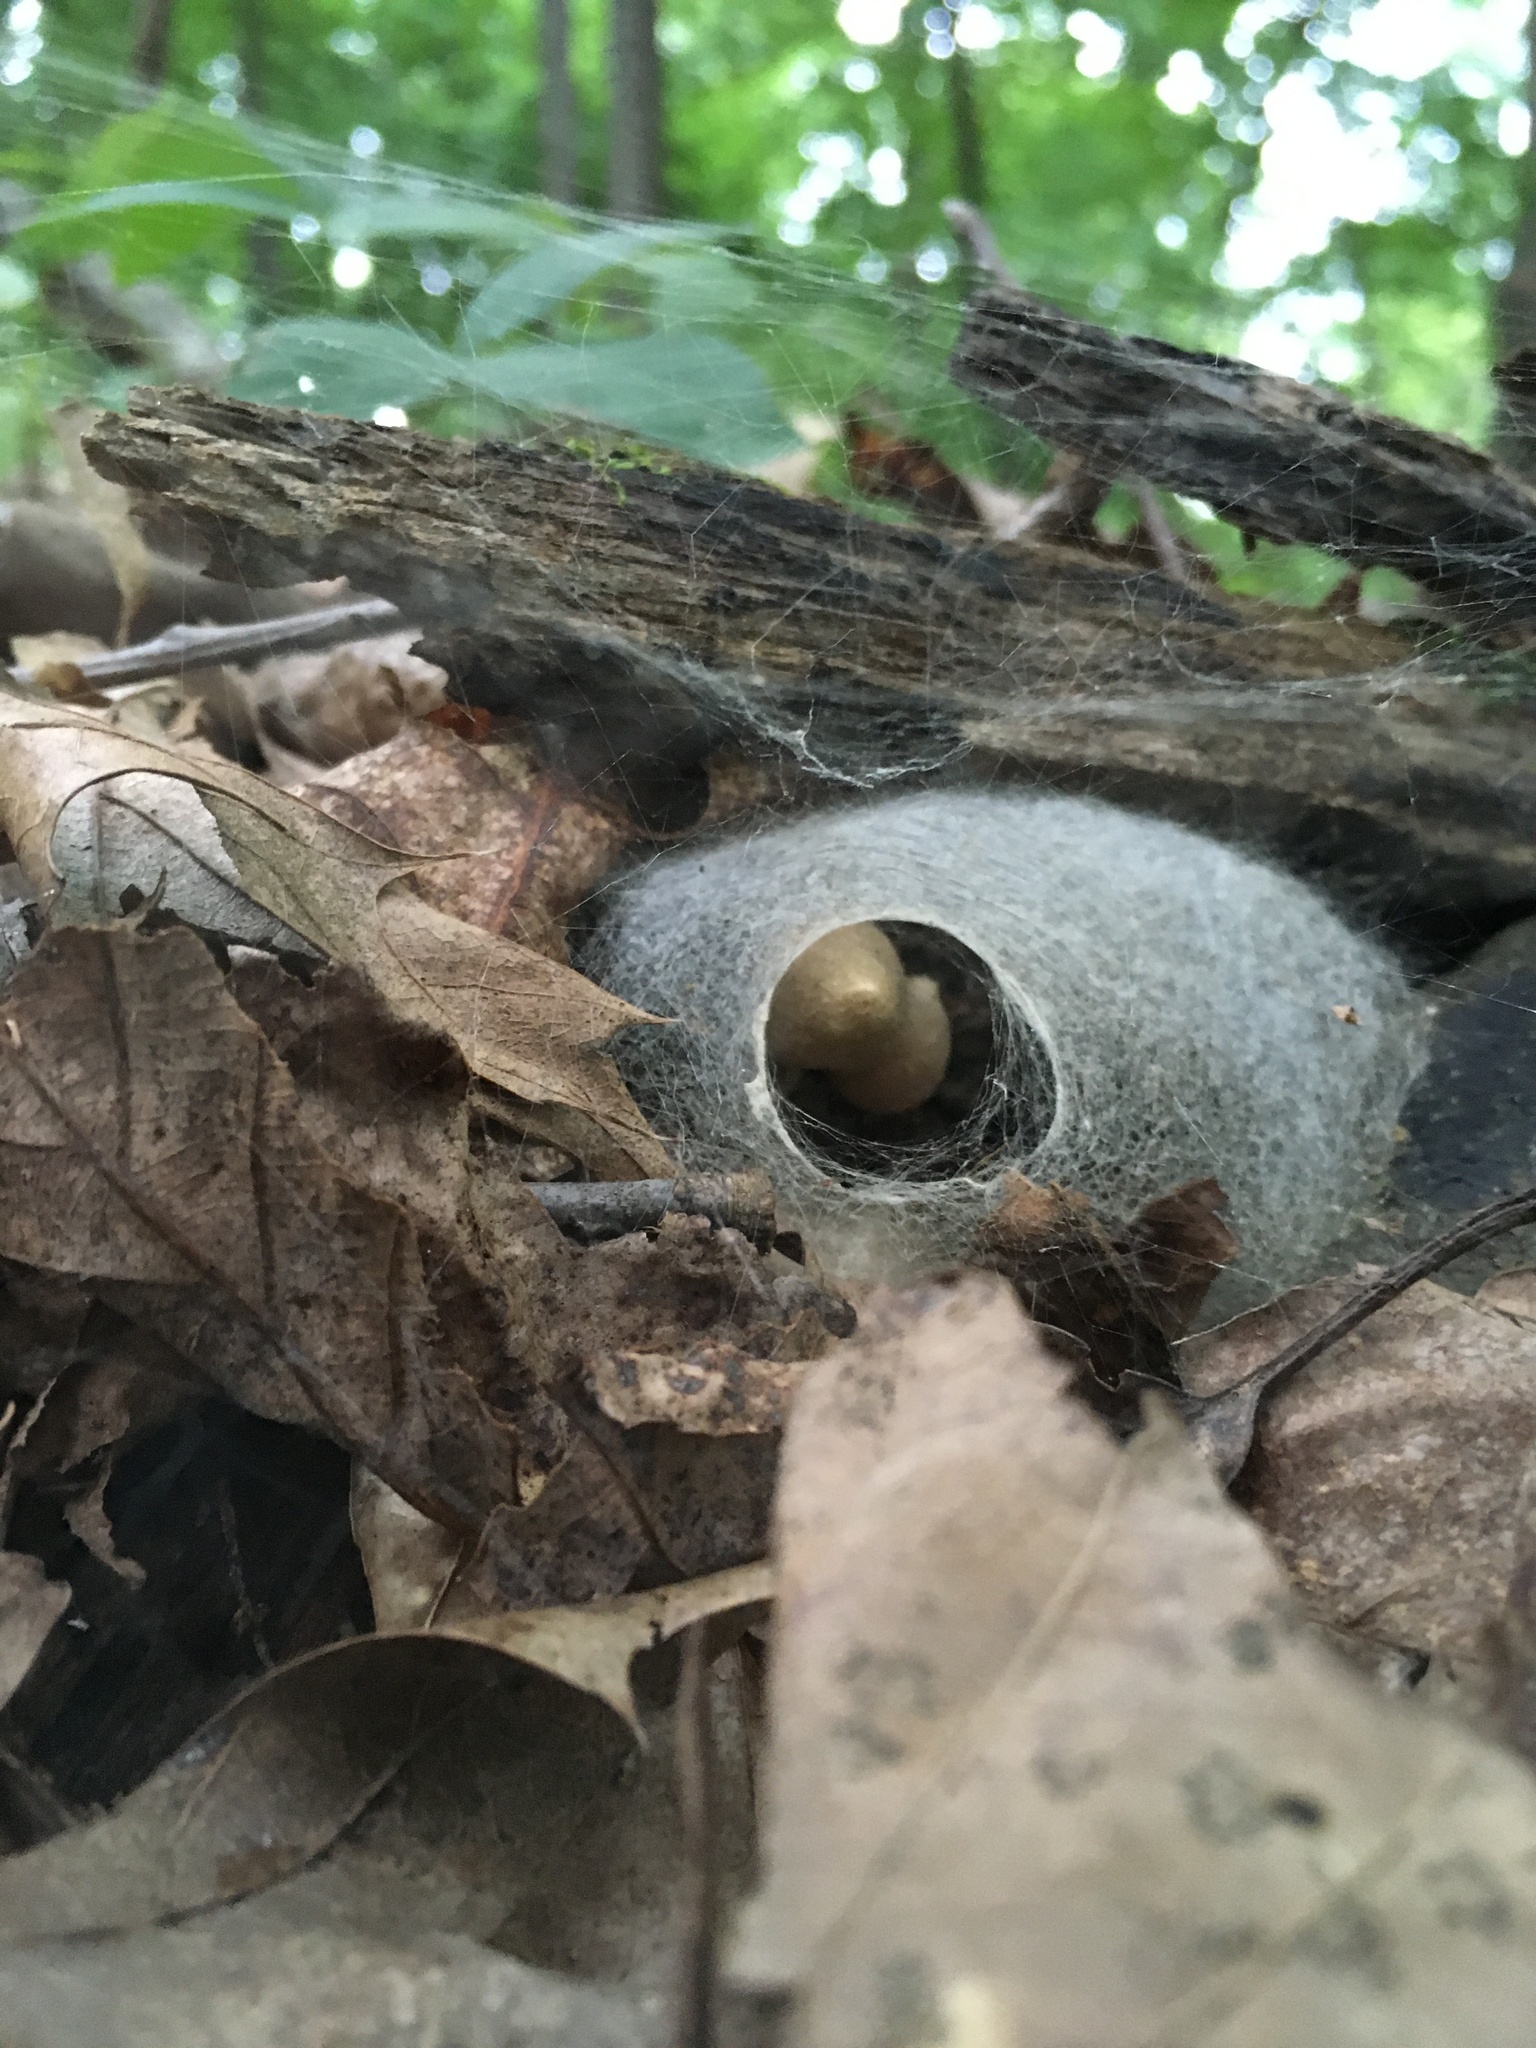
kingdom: Animalia
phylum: Arthropoda
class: Arachnida
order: Araneae
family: Theridiidae
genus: Latrodectus
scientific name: Latrodectus variolus
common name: Northern black widow
